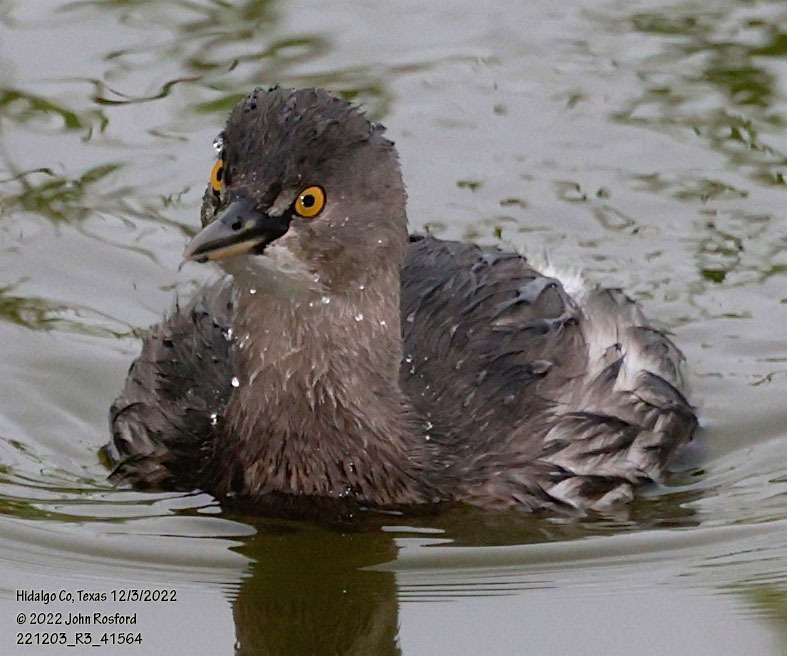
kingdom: Animalia
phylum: Chordata
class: Aves
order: Podicipediformes
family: Podicipedidae
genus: Tachybaptus
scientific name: Tachybaptus dominicus
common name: Least grebe
